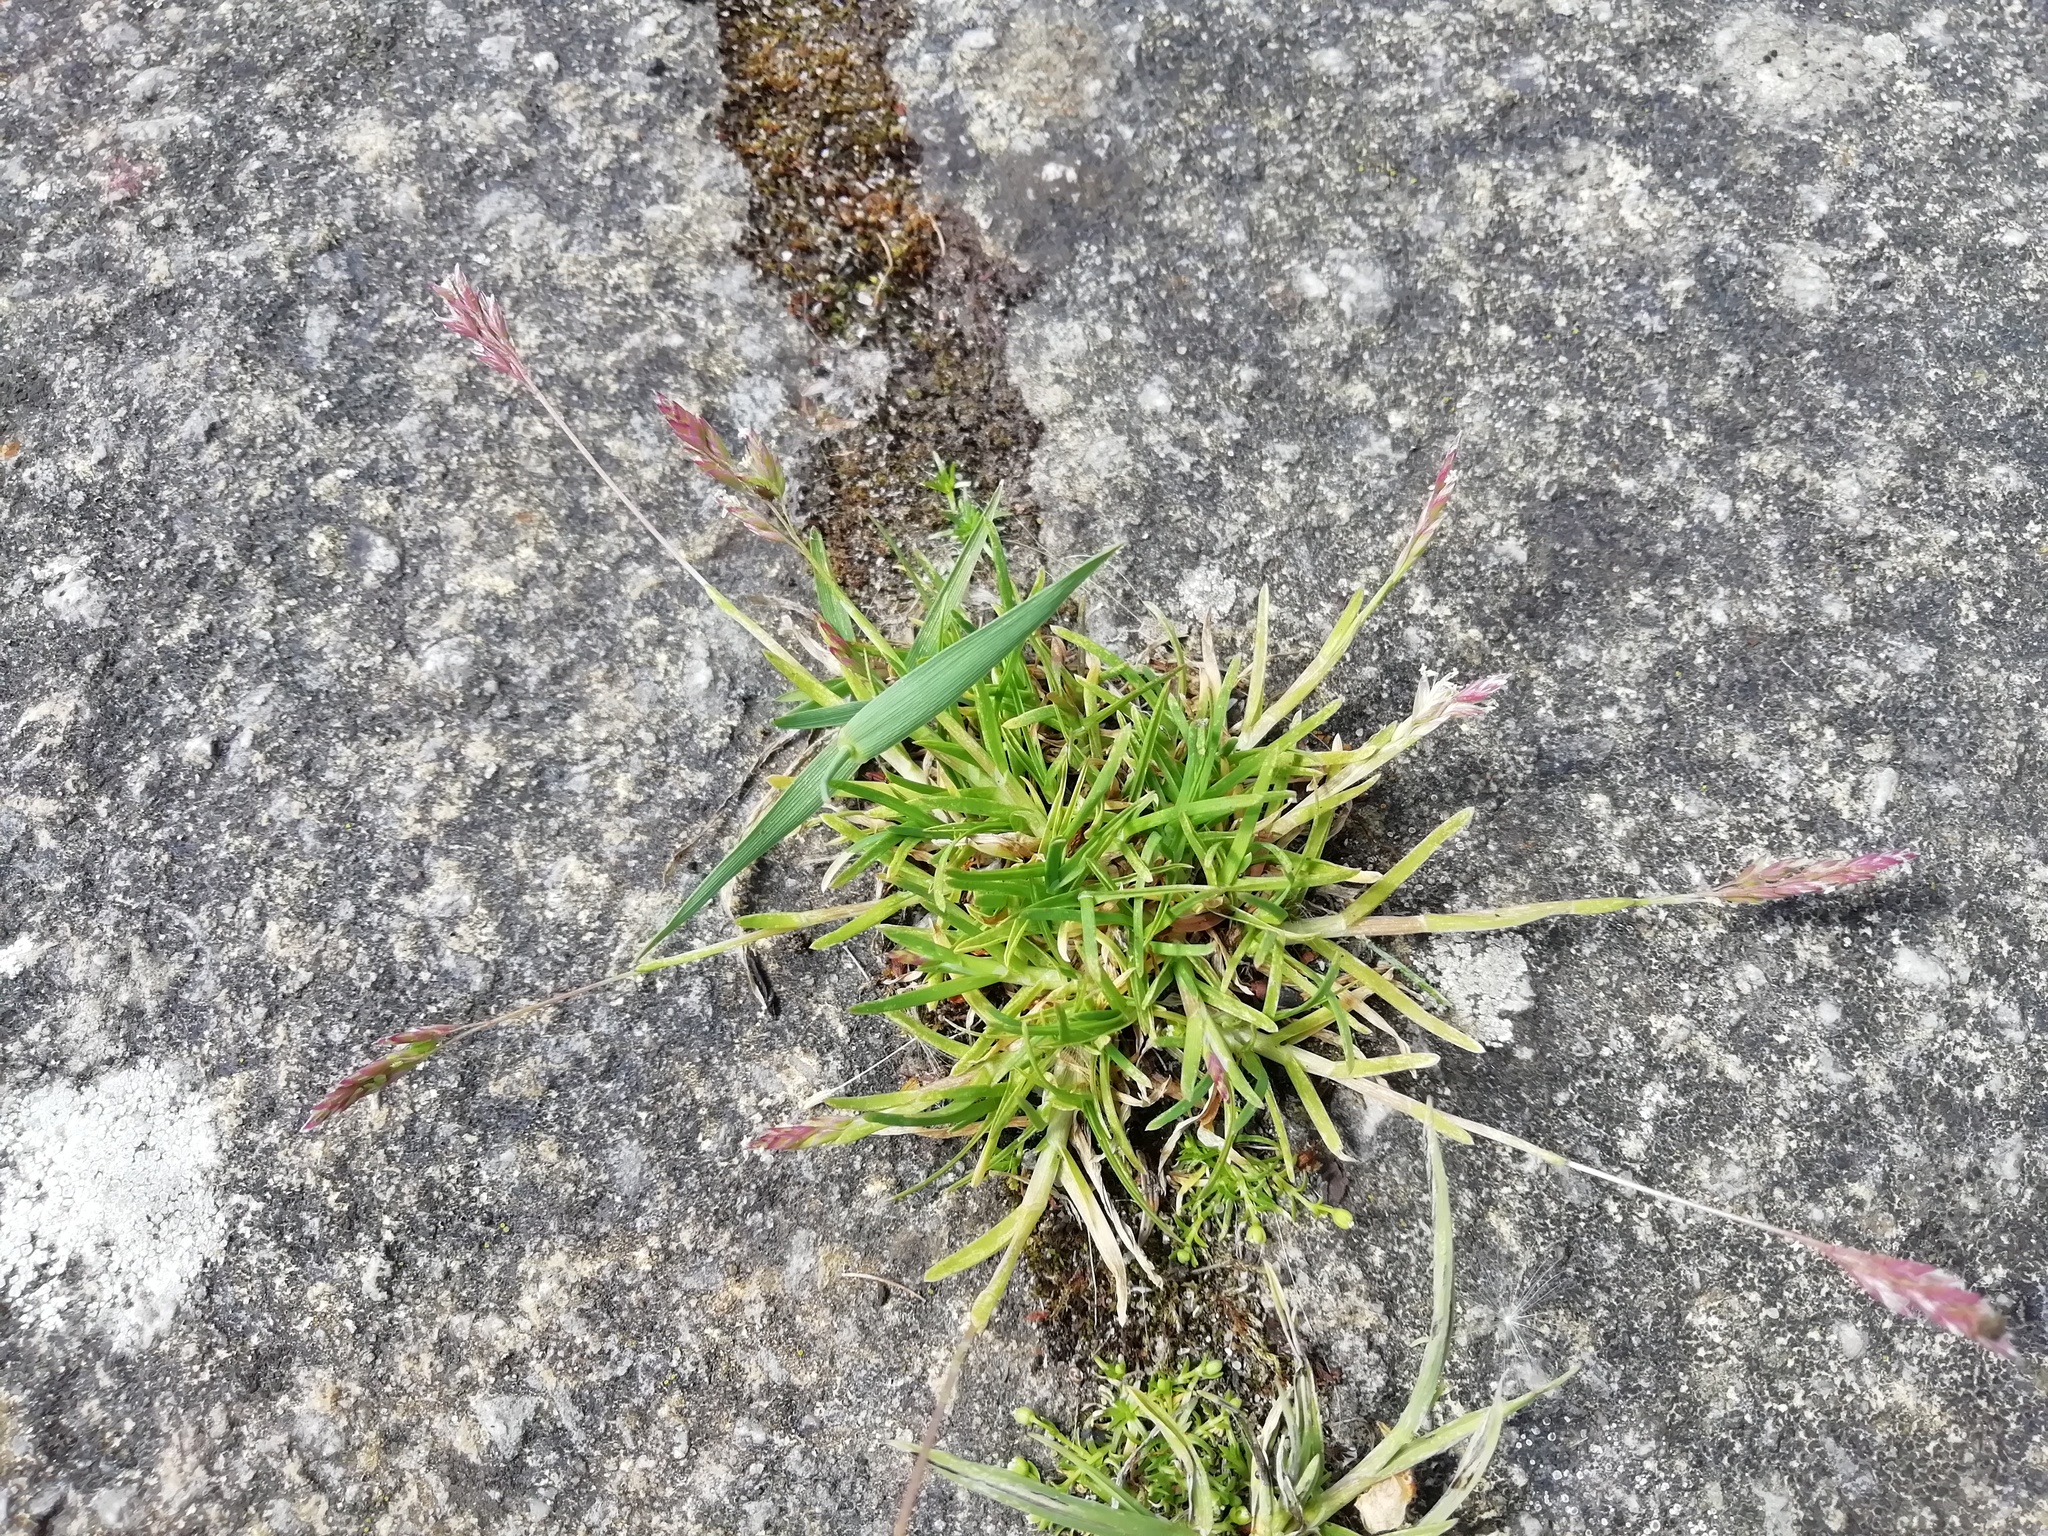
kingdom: Plantae
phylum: Tracheophyta
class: Liliopsida
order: Poales
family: Poaceae
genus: Poa
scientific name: Poa annua
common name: Annual bluegrass
